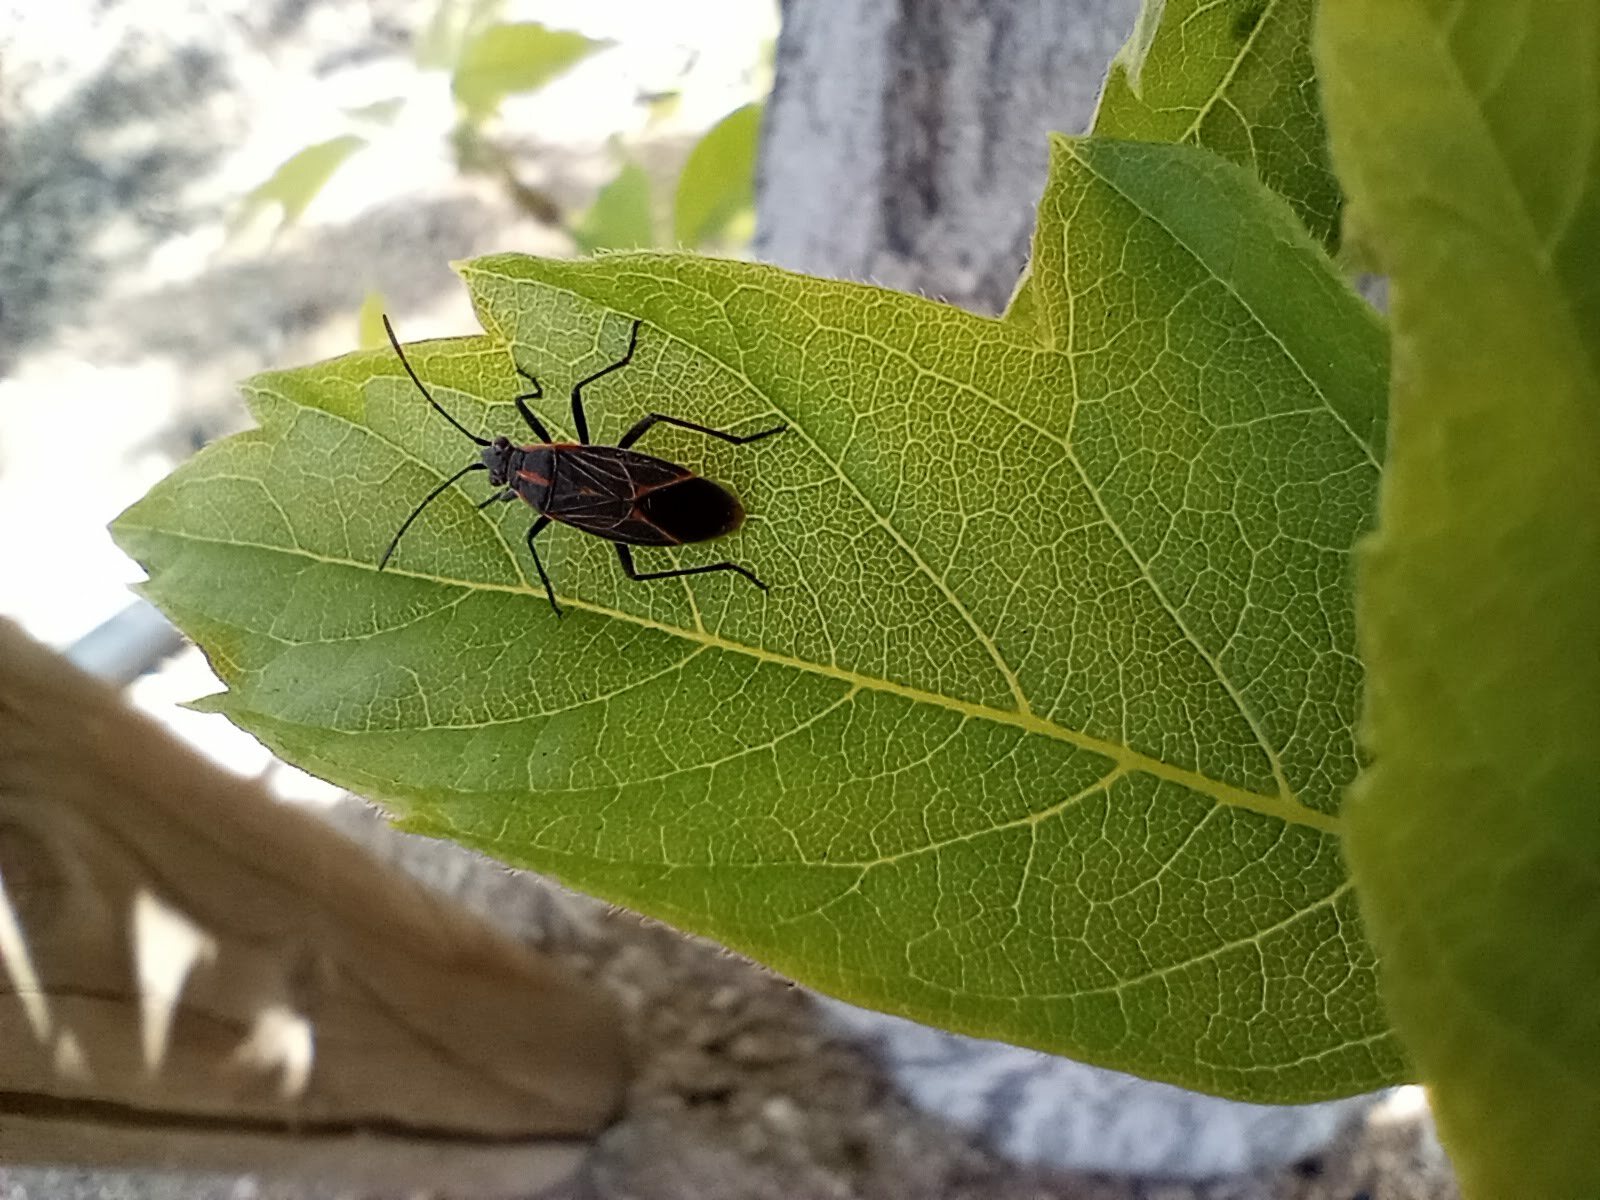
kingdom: Animalia
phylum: Arthropoda
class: Insecta
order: Hemiptera
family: Rhopalidae
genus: Boisea
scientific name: Boisea rubrolineata
